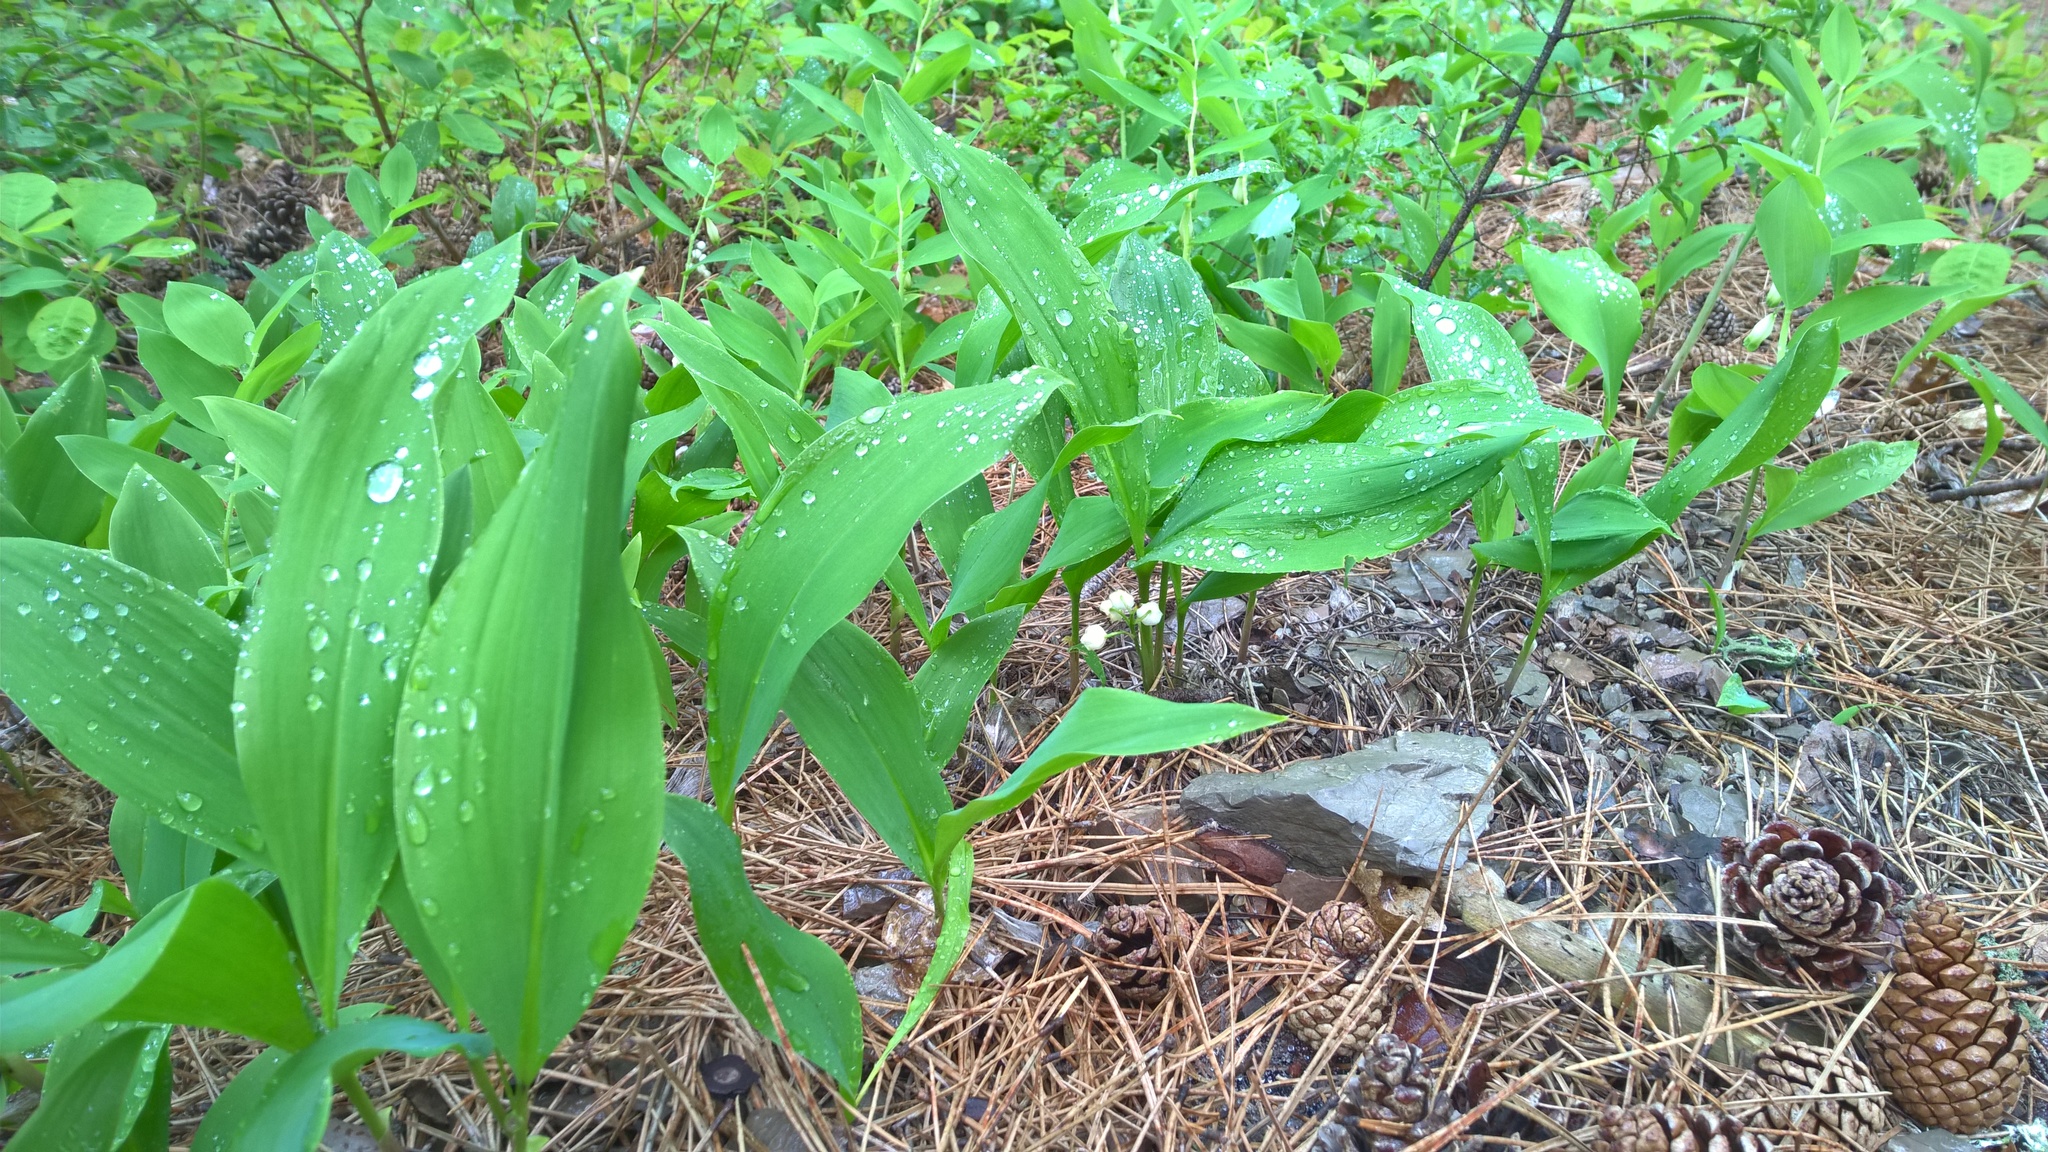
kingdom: Plantae
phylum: Tracheophyta
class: Liliopsida
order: Asparagales
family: Asparagaceae
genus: Convallaria
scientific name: Convallaria majalis
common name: Lily-of-the-valley
